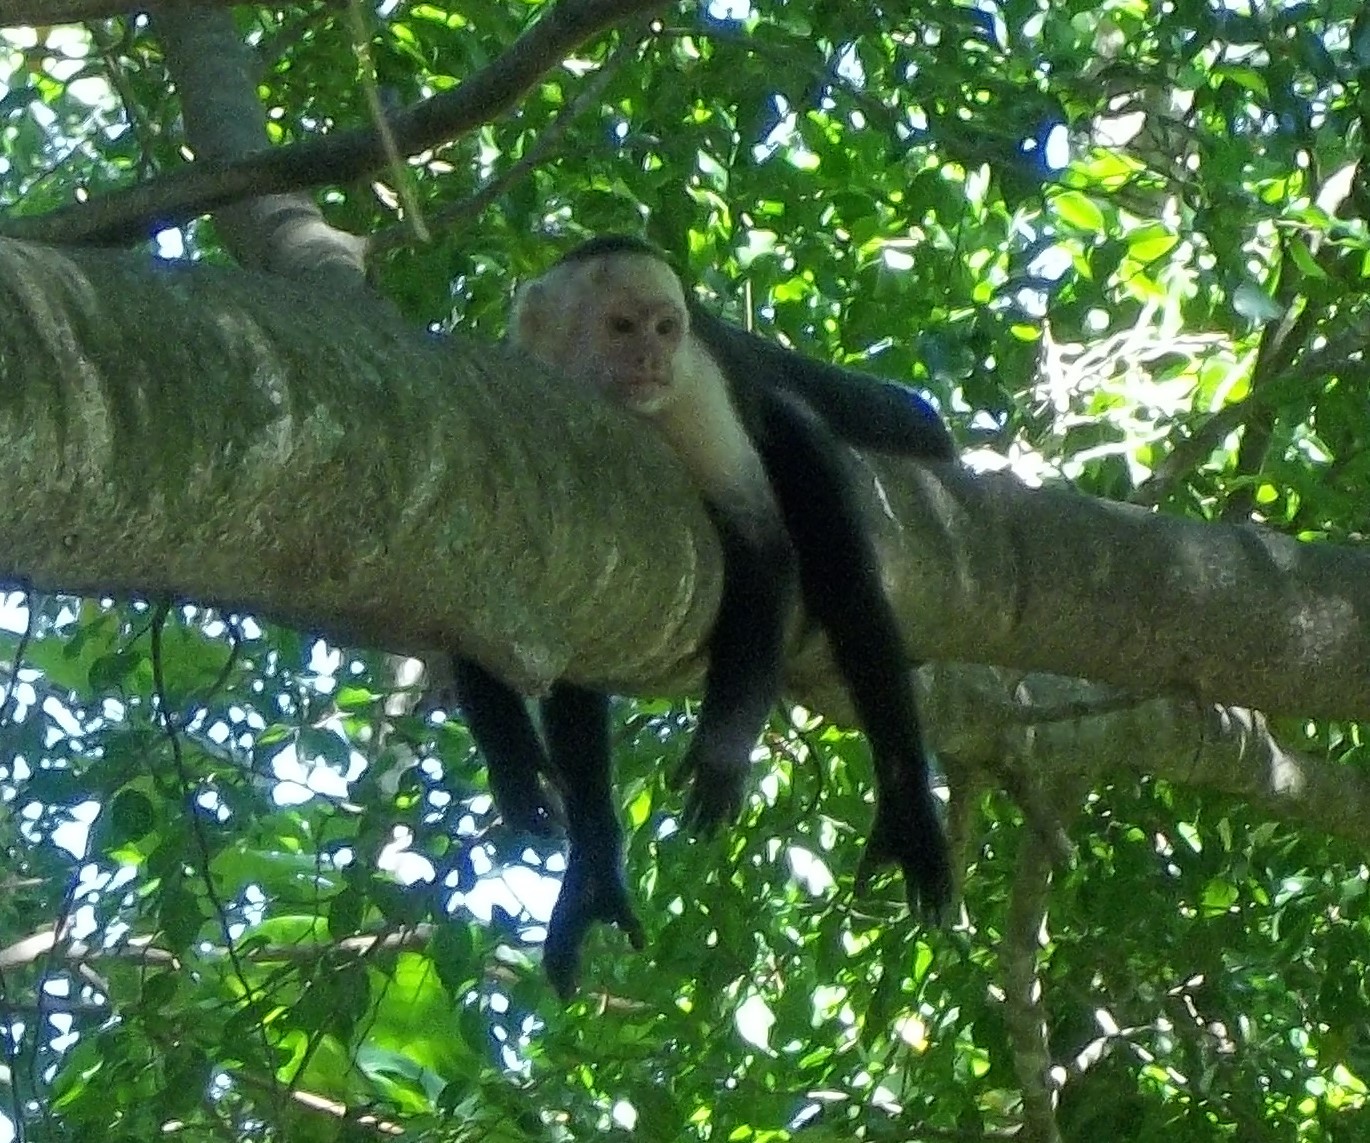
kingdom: Animalia
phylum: Chordata
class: Mammalia
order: Primates
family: Cebidae
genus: Cebus
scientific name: Cebus imitator
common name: Panamanian white-faced capuchin
